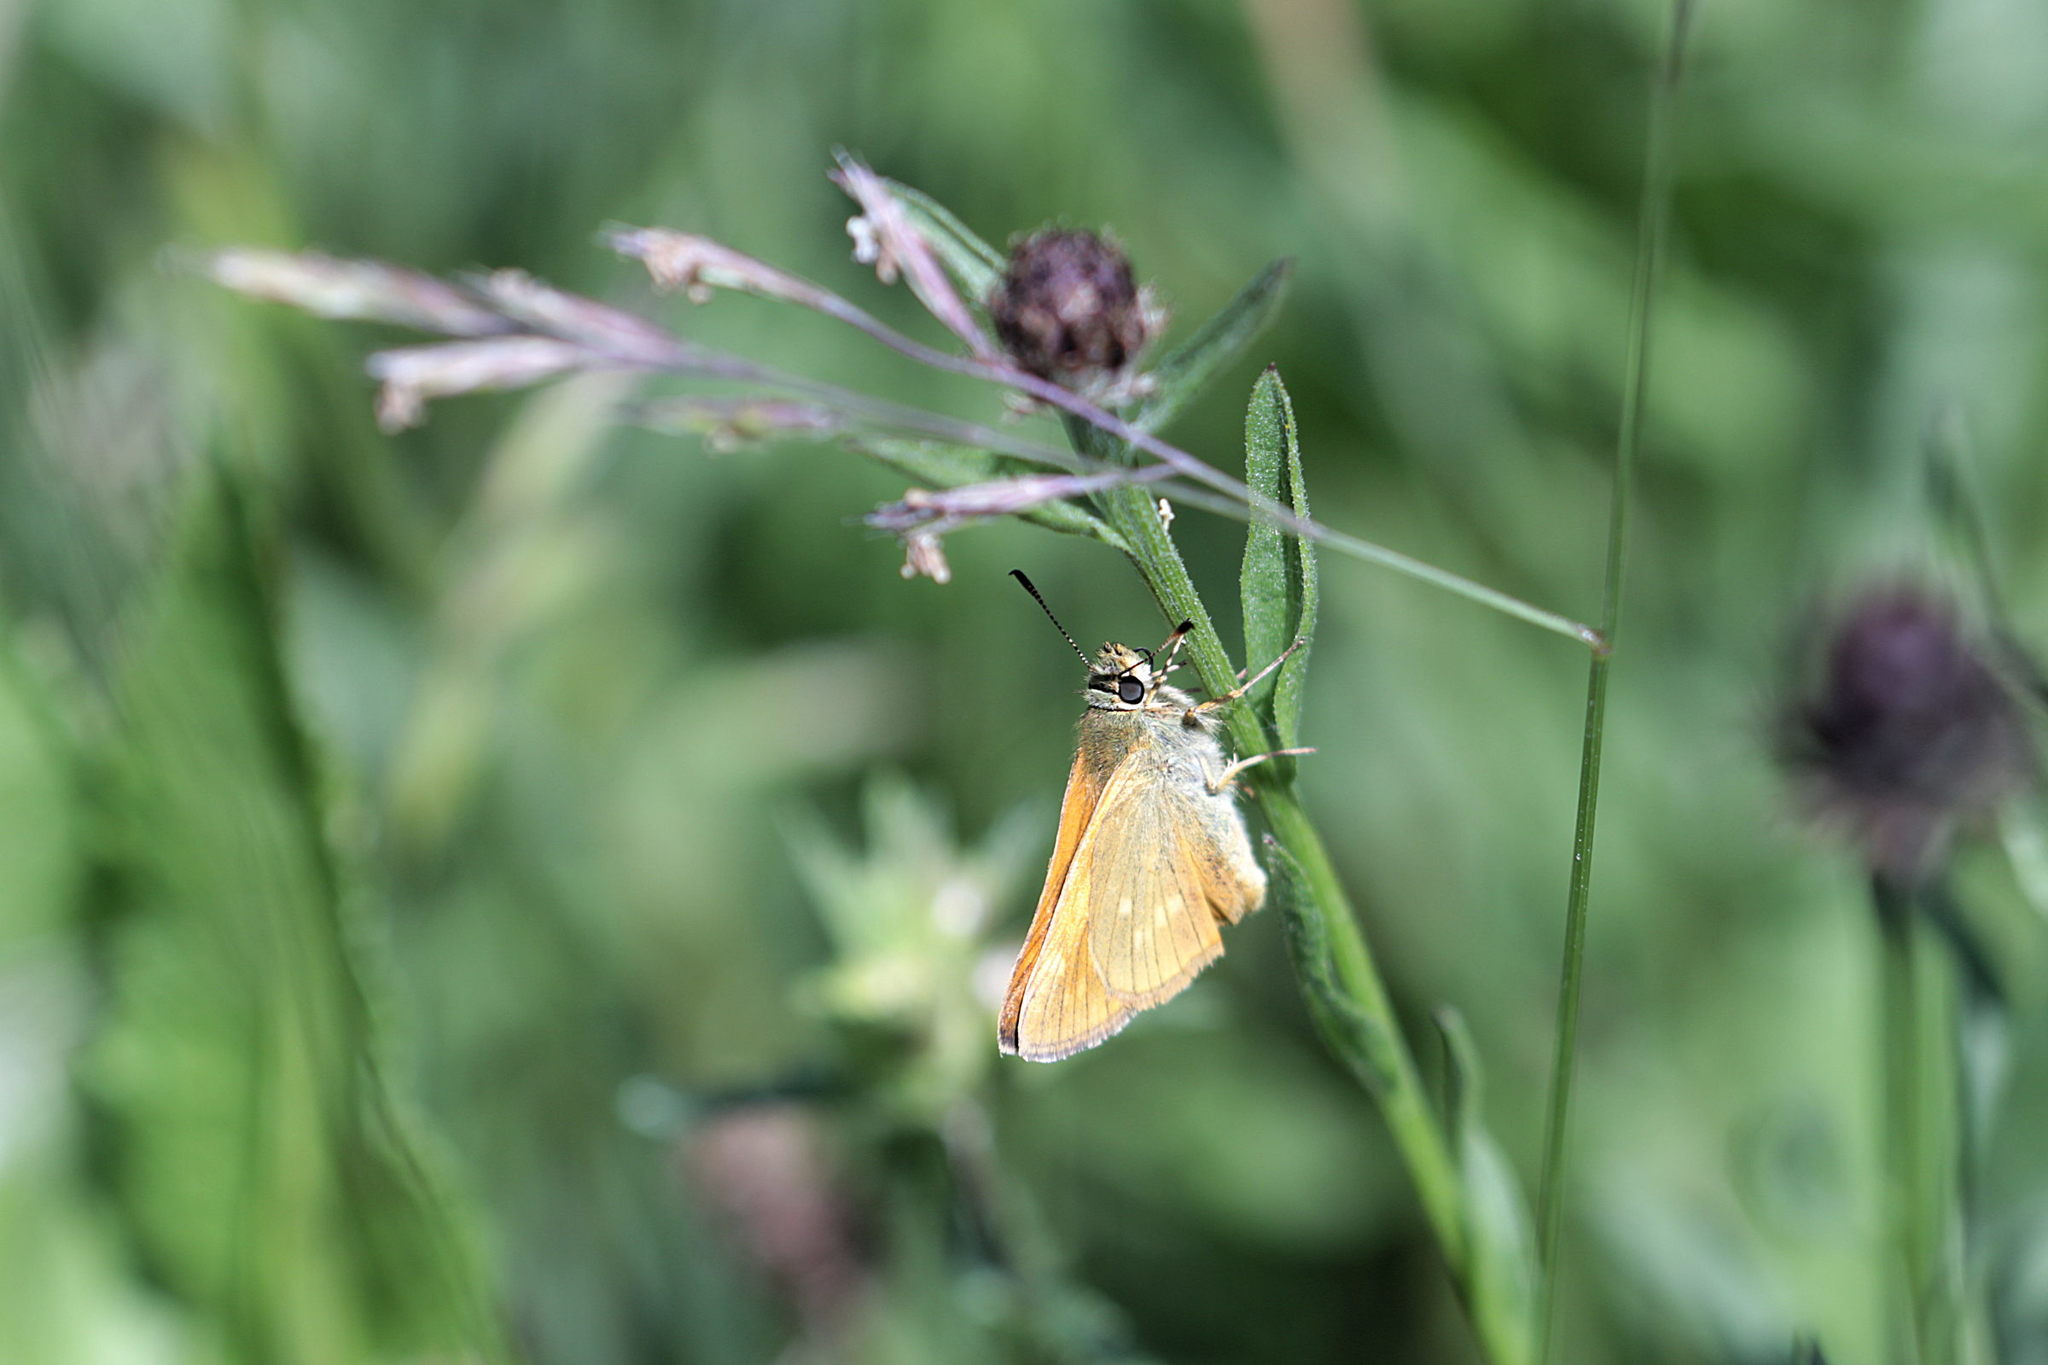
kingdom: Animalia
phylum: Arthropoda
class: Insecta
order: Lepidoptera
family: Hesperiidae
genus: Ochlodes
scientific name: Ochlodes venata
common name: Large skipper
